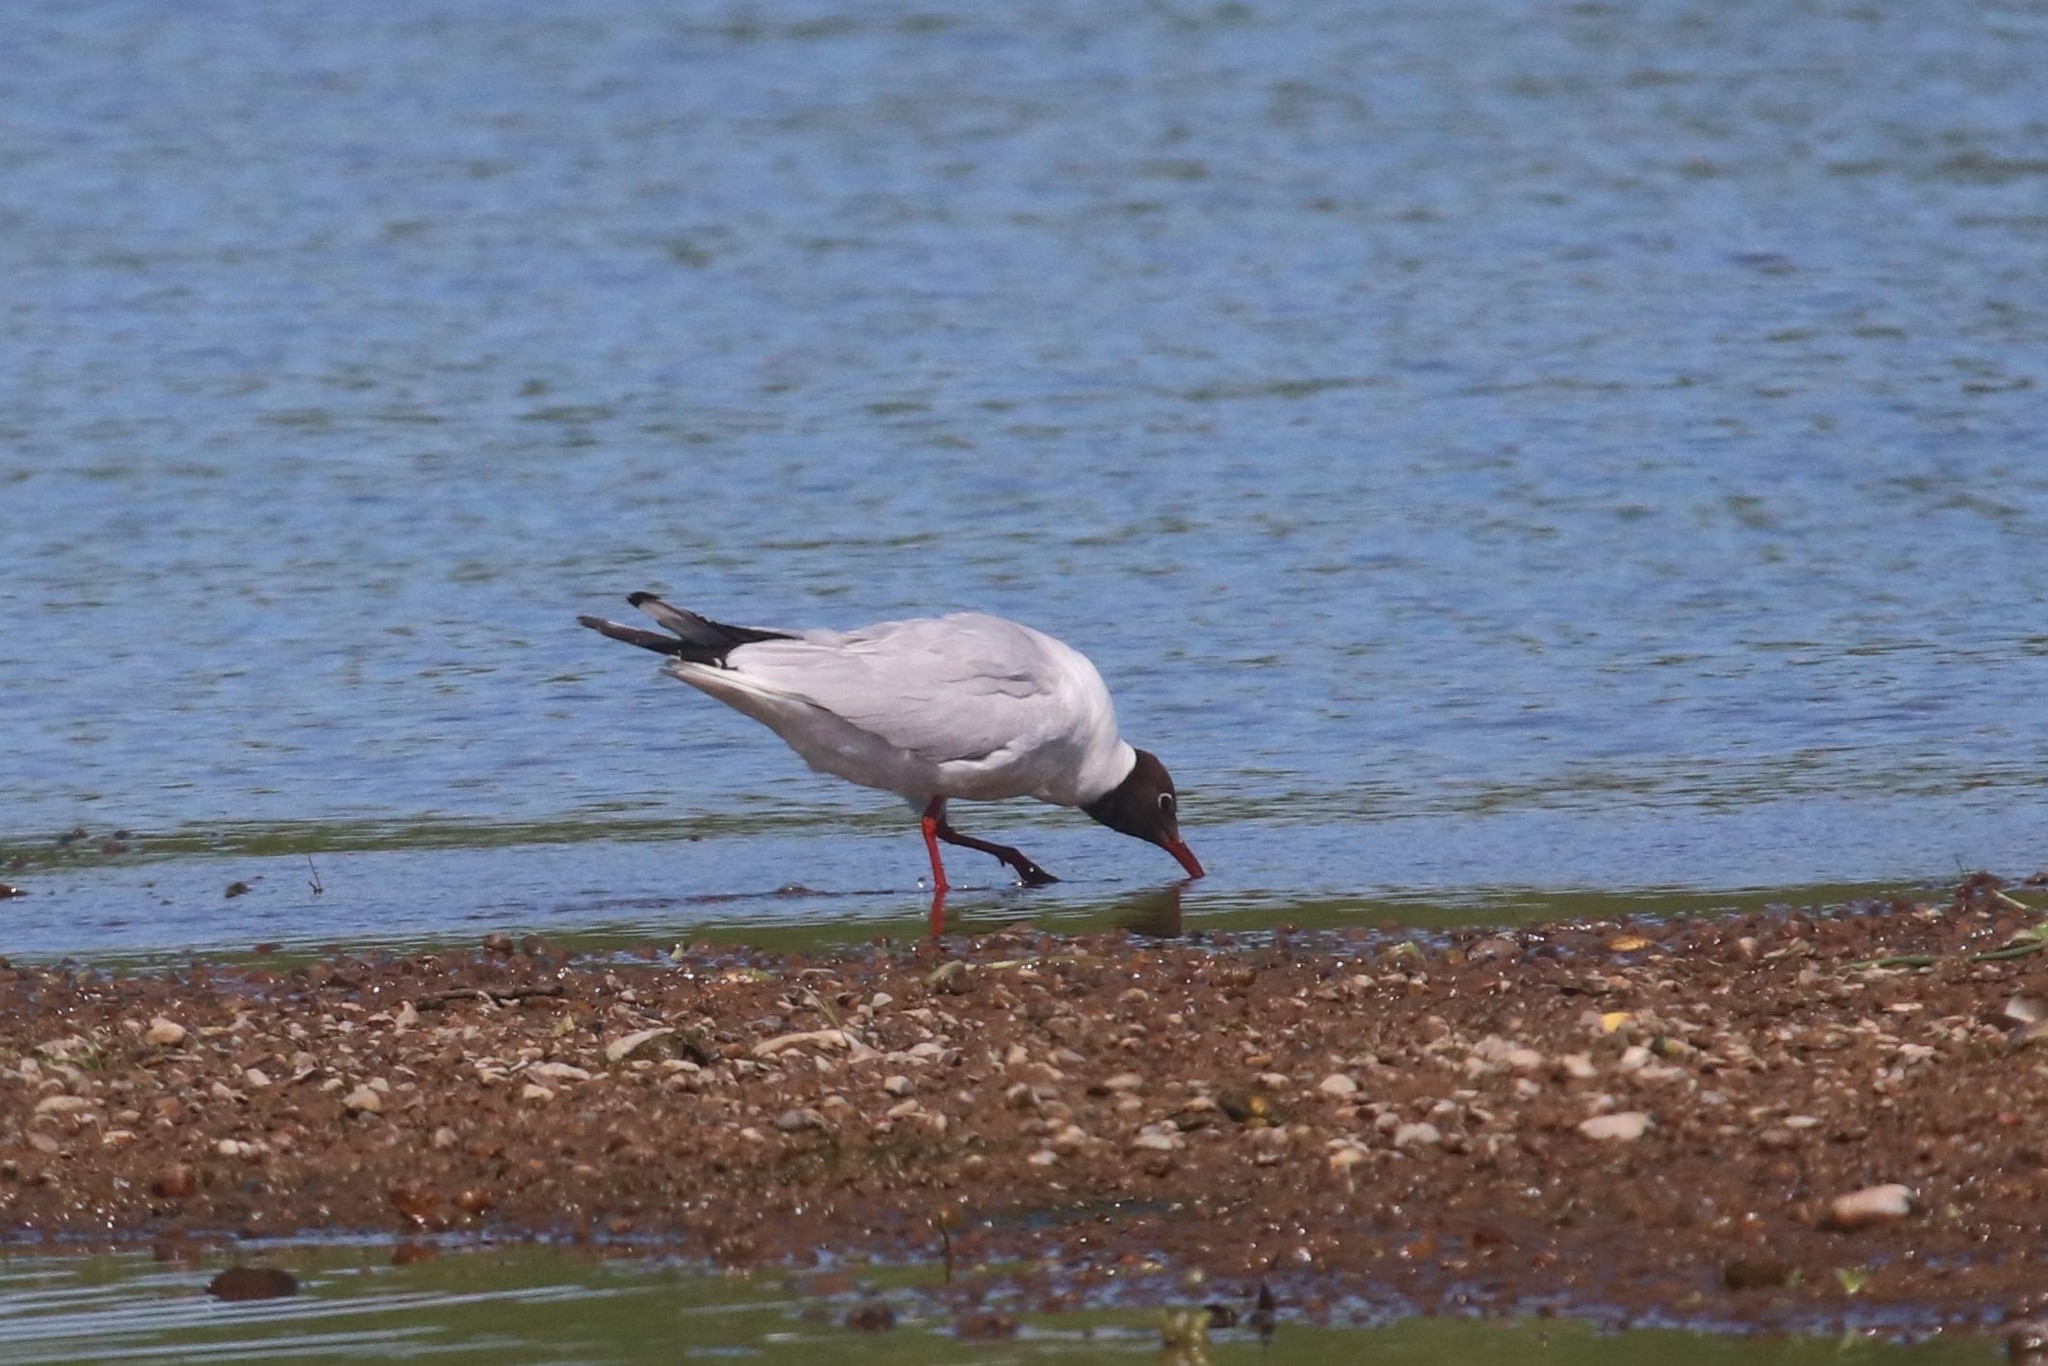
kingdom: Animalia
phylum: Chordata
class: Aves
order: Charadriiformes
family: Laridae
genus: Chroicocephalus
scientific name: Chroicocephalus ridibundus
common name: Black-headed gull
